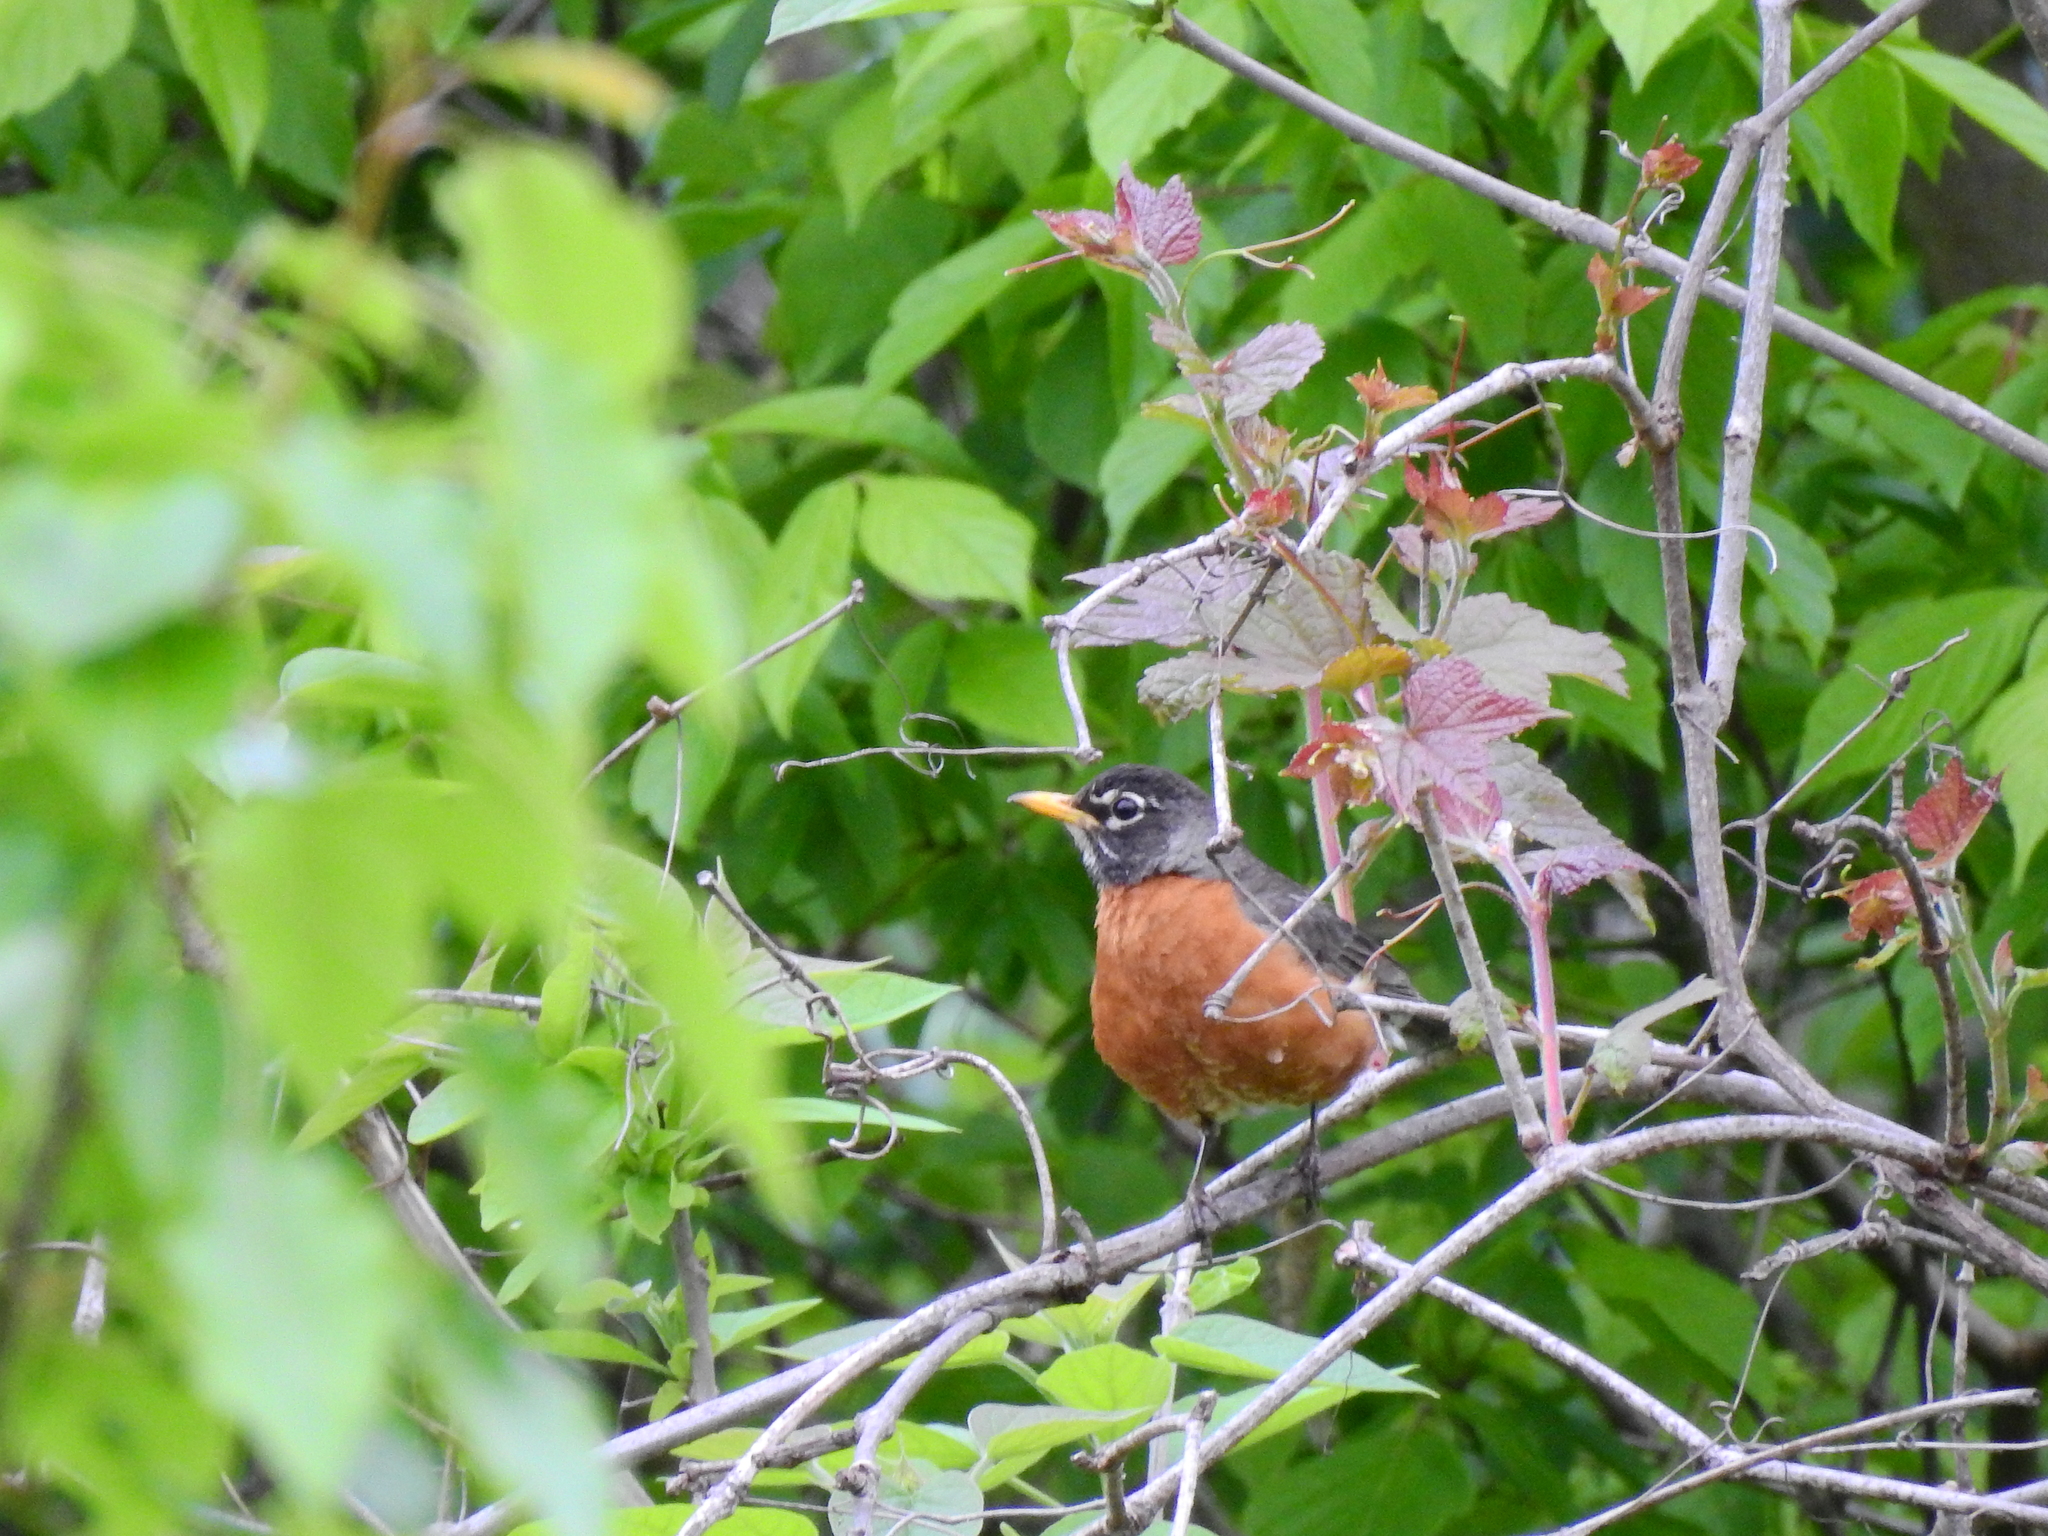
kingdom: Animalia
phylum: Chordata
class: Aves
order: Passeriformes
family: Turdidae
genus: Turdus
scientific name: Turdus migratorius
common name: American robin
